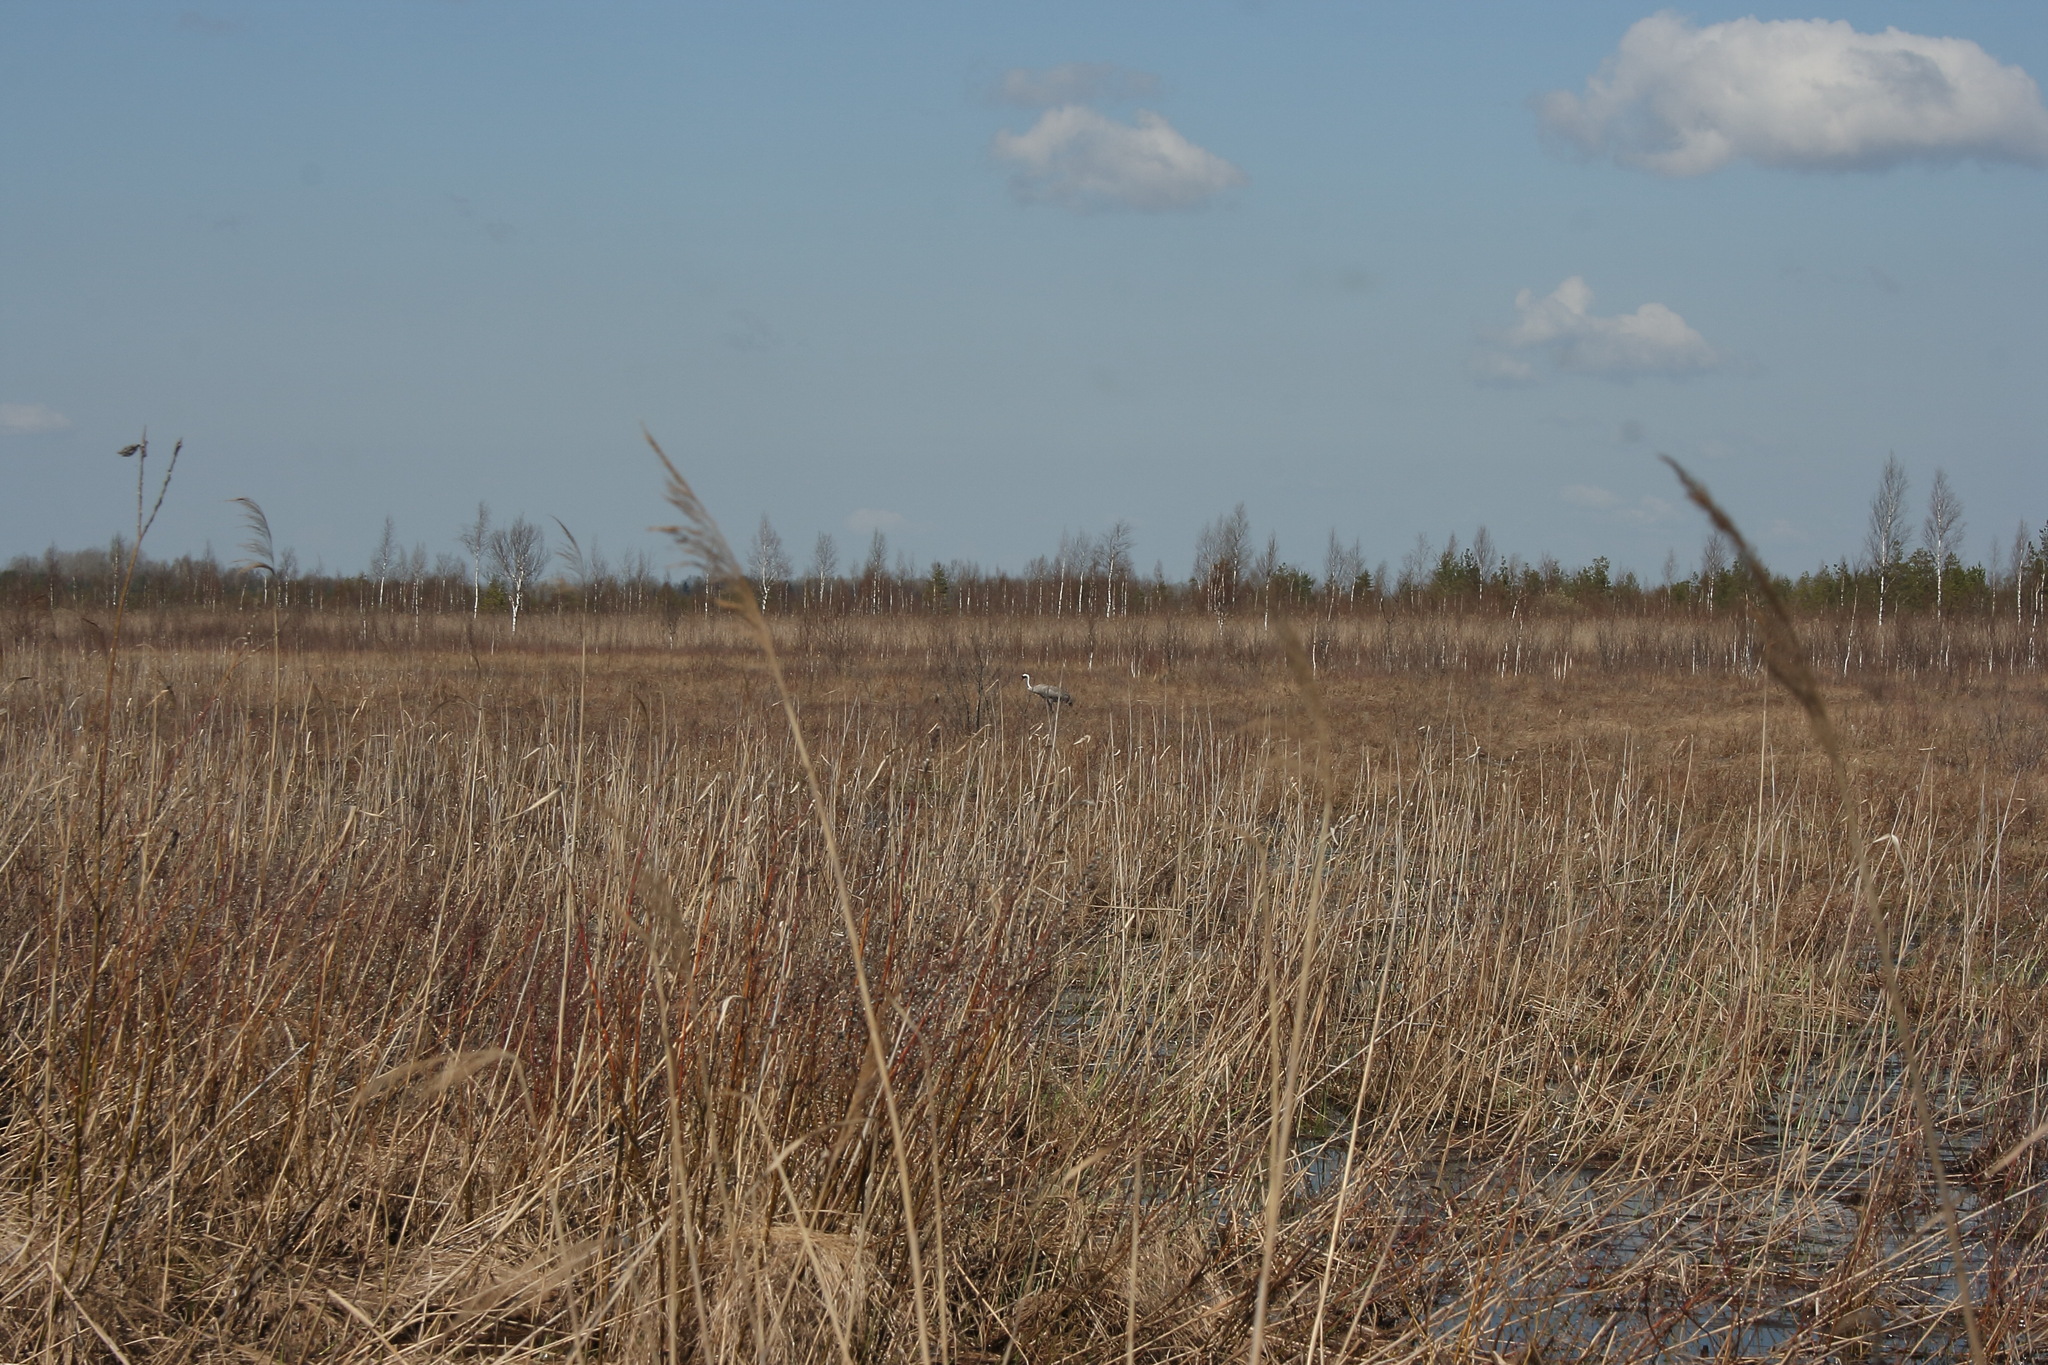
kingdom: Animalia
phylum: Chordata
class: Aves
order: Gruiformes
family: Gruidae
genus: Grus
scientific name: Grus grus
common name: Common crane
